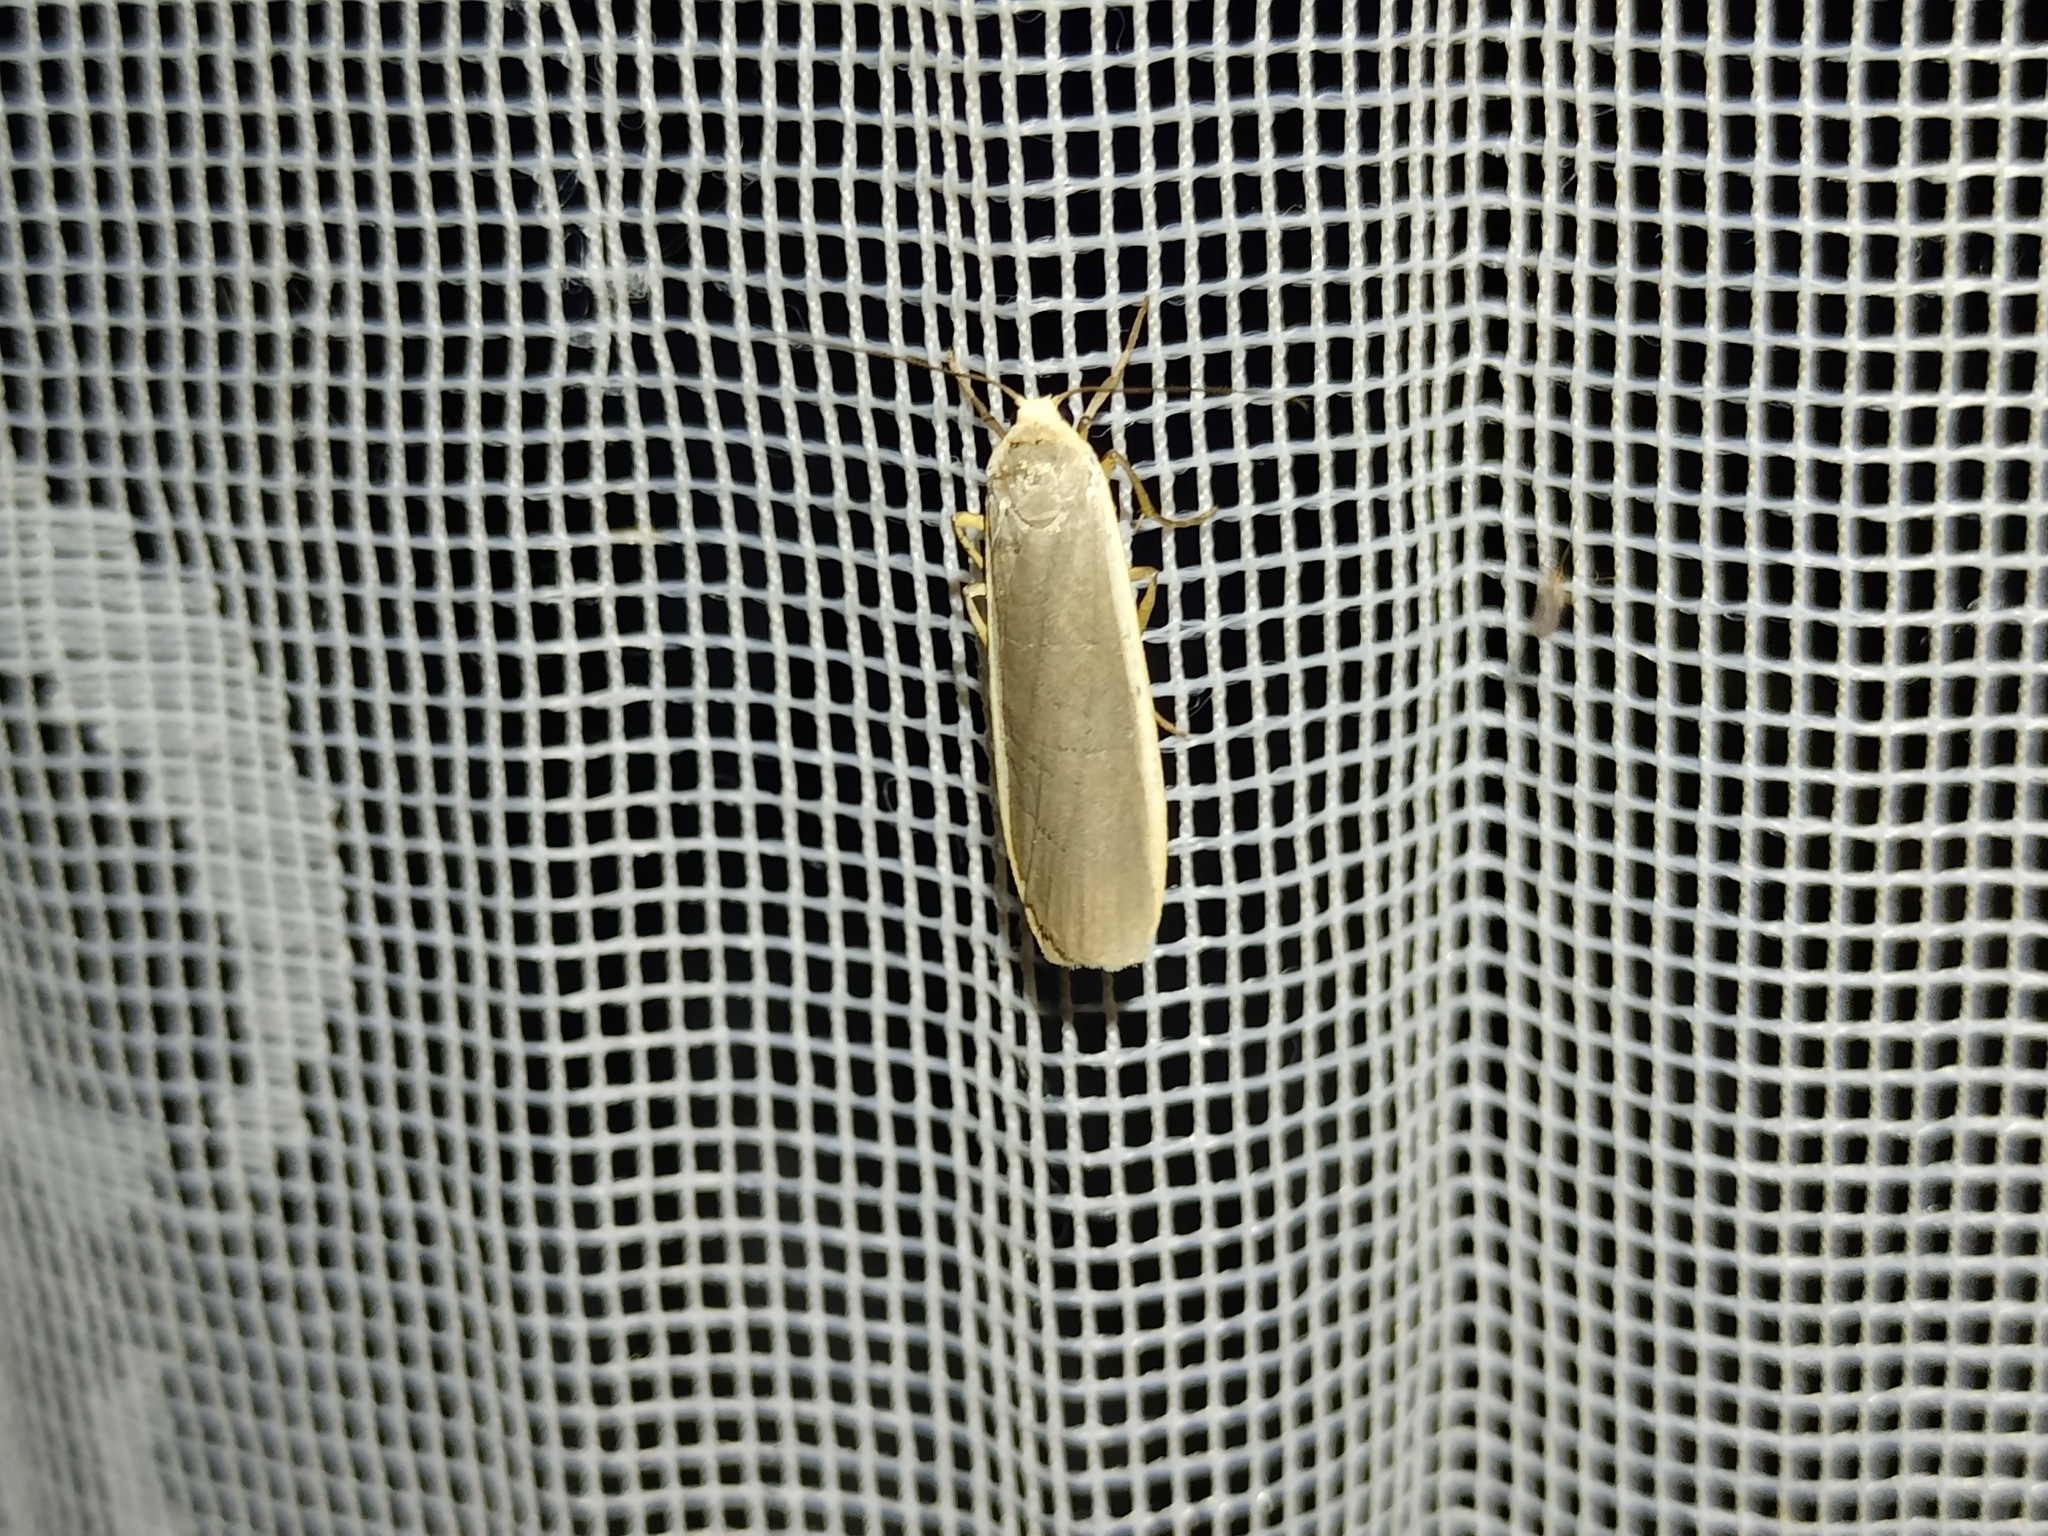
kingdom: Animalia
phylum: Arthropoda
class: Insecta
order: Lepidoptera
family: Erebidae
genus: Nyea
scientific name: Nyea lurideola
